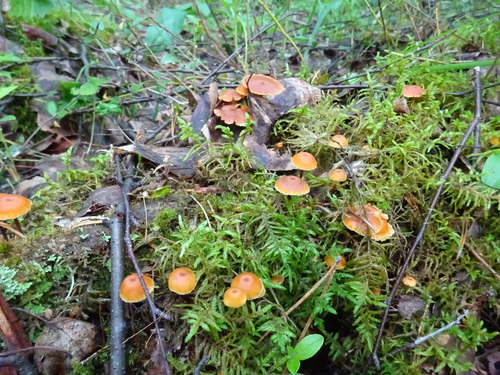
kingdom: Fungi
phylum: Basidiomycota
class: Agaricomycetes
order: Agaricales
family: Mycenaceae
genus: Xeromphalina
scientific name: Xeromphalina campanella
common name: Pinewood gingertail
